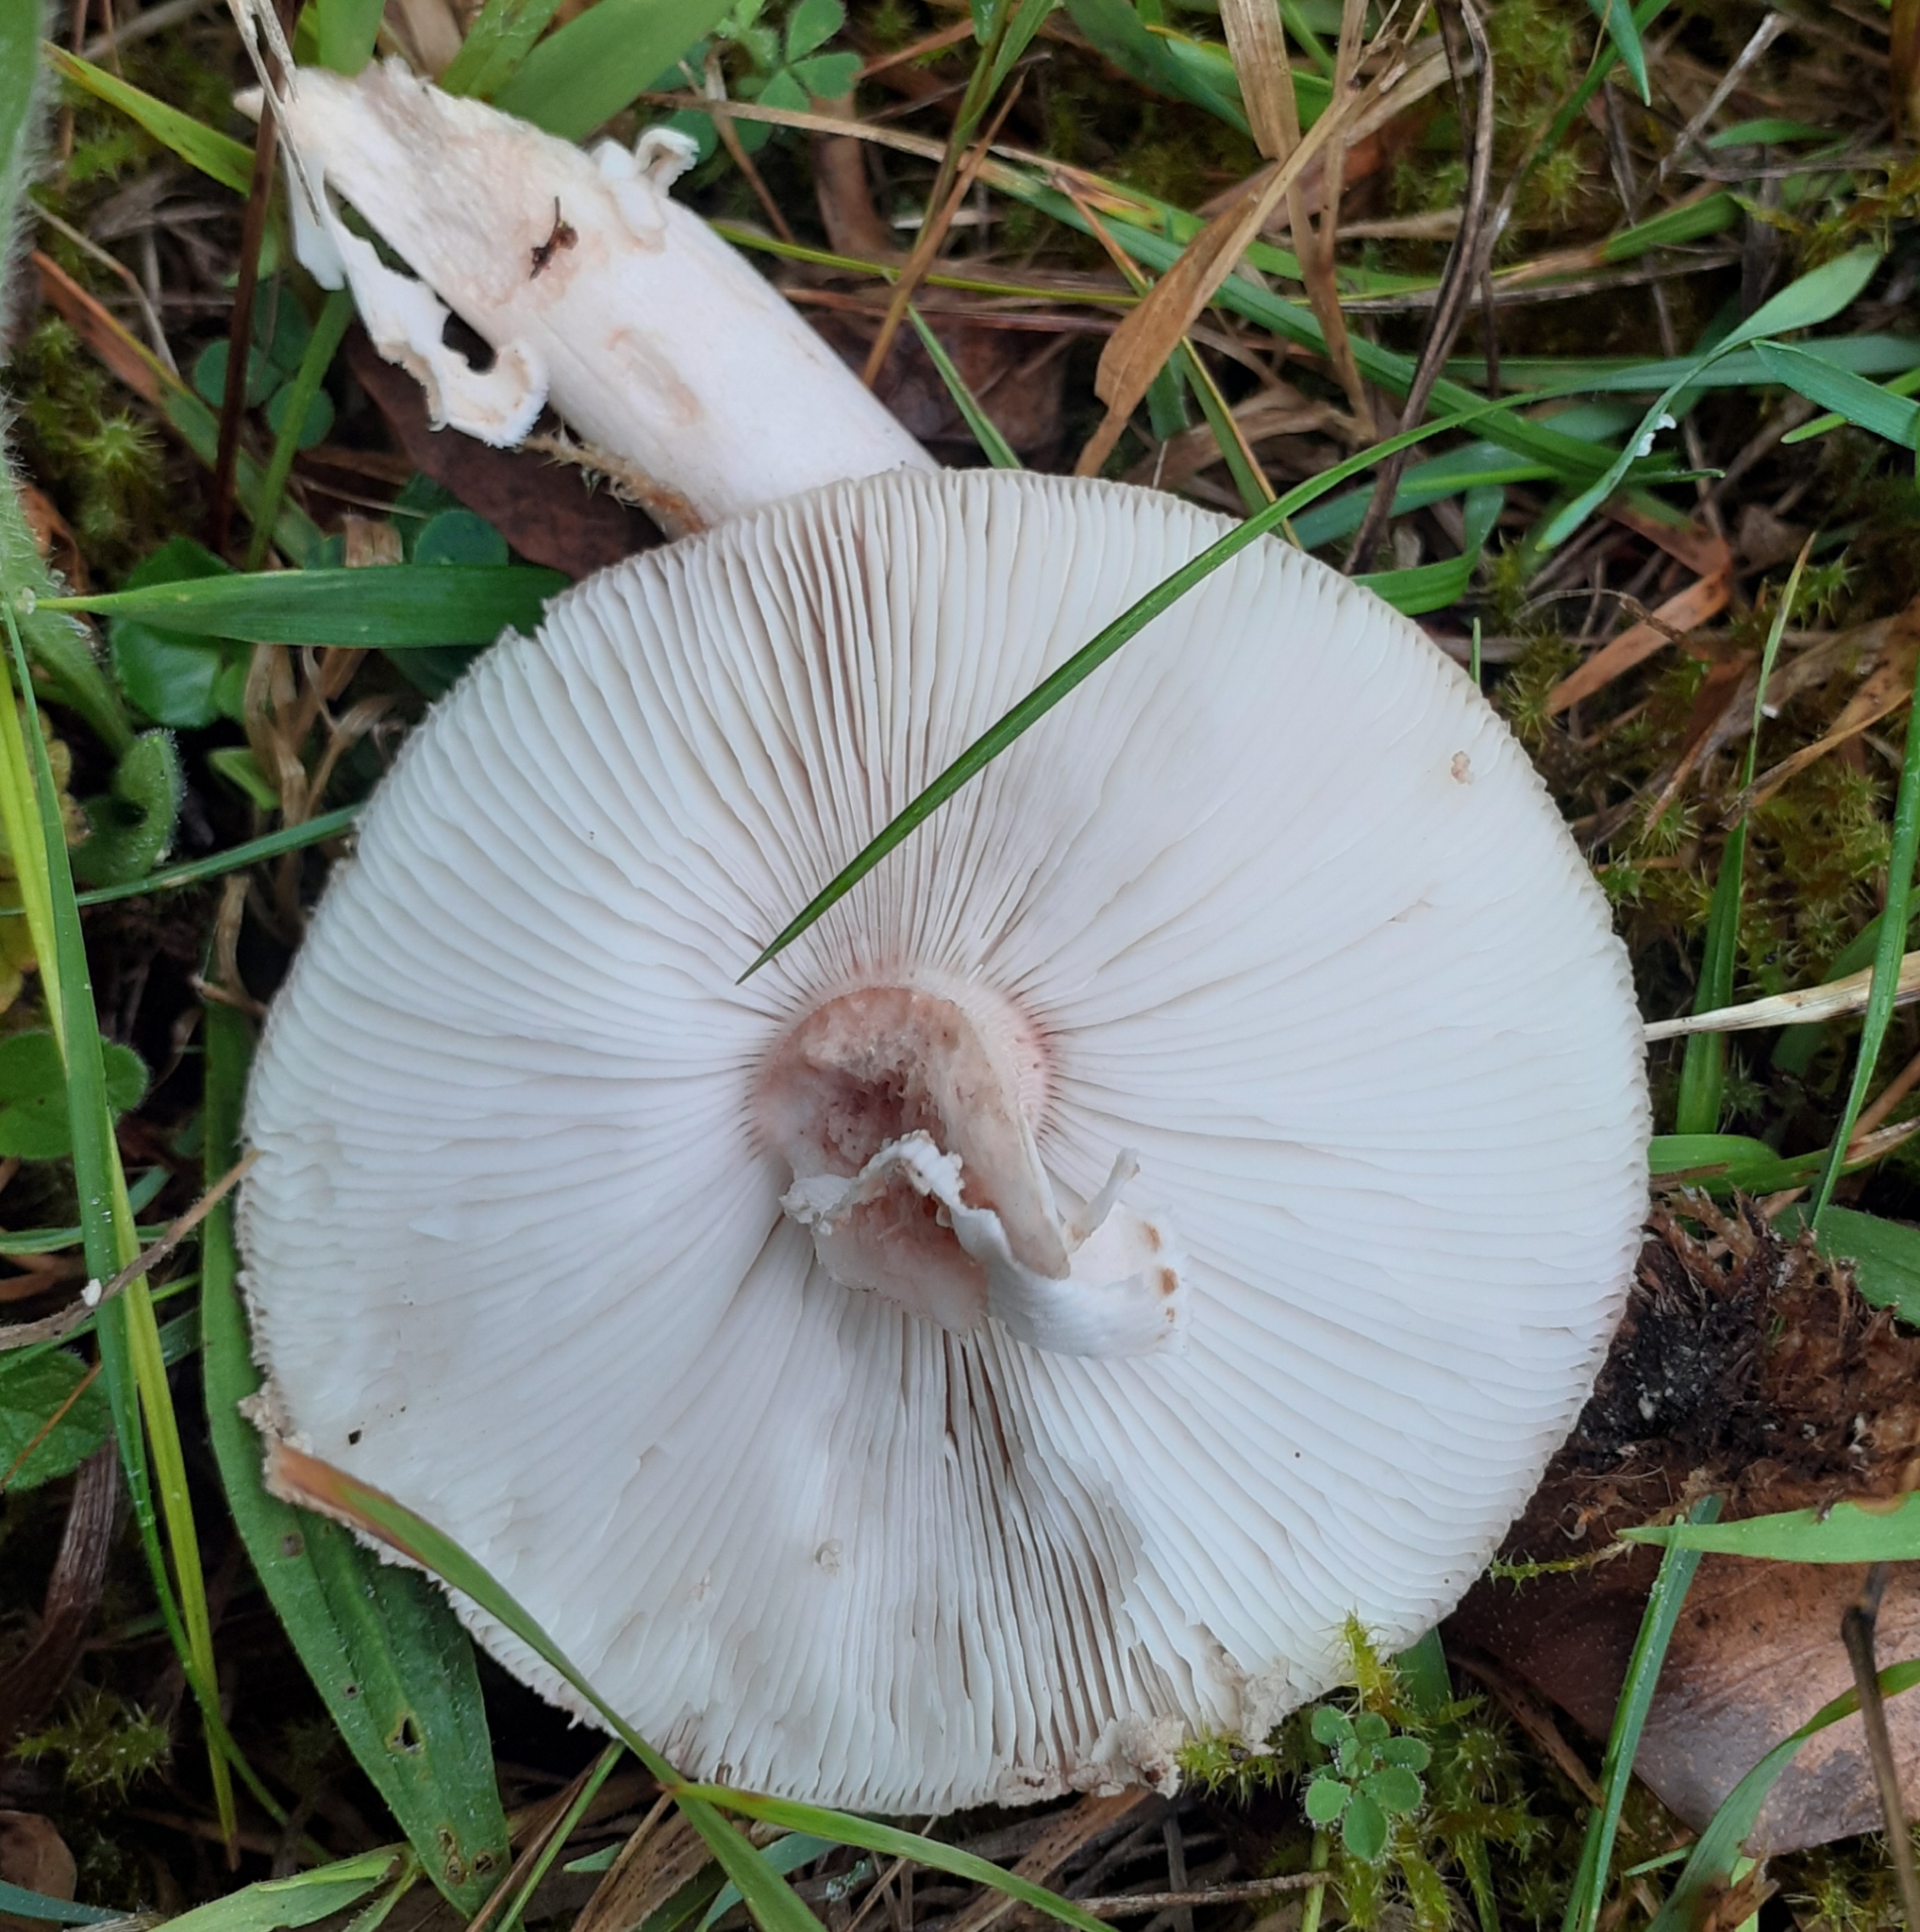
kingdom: Fungi
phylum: Basidiomycota
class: Agaricomycetes
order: Agaricales
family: Amanitaceae
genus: Amanita
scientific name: Amanita rubescens
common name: Blusher
